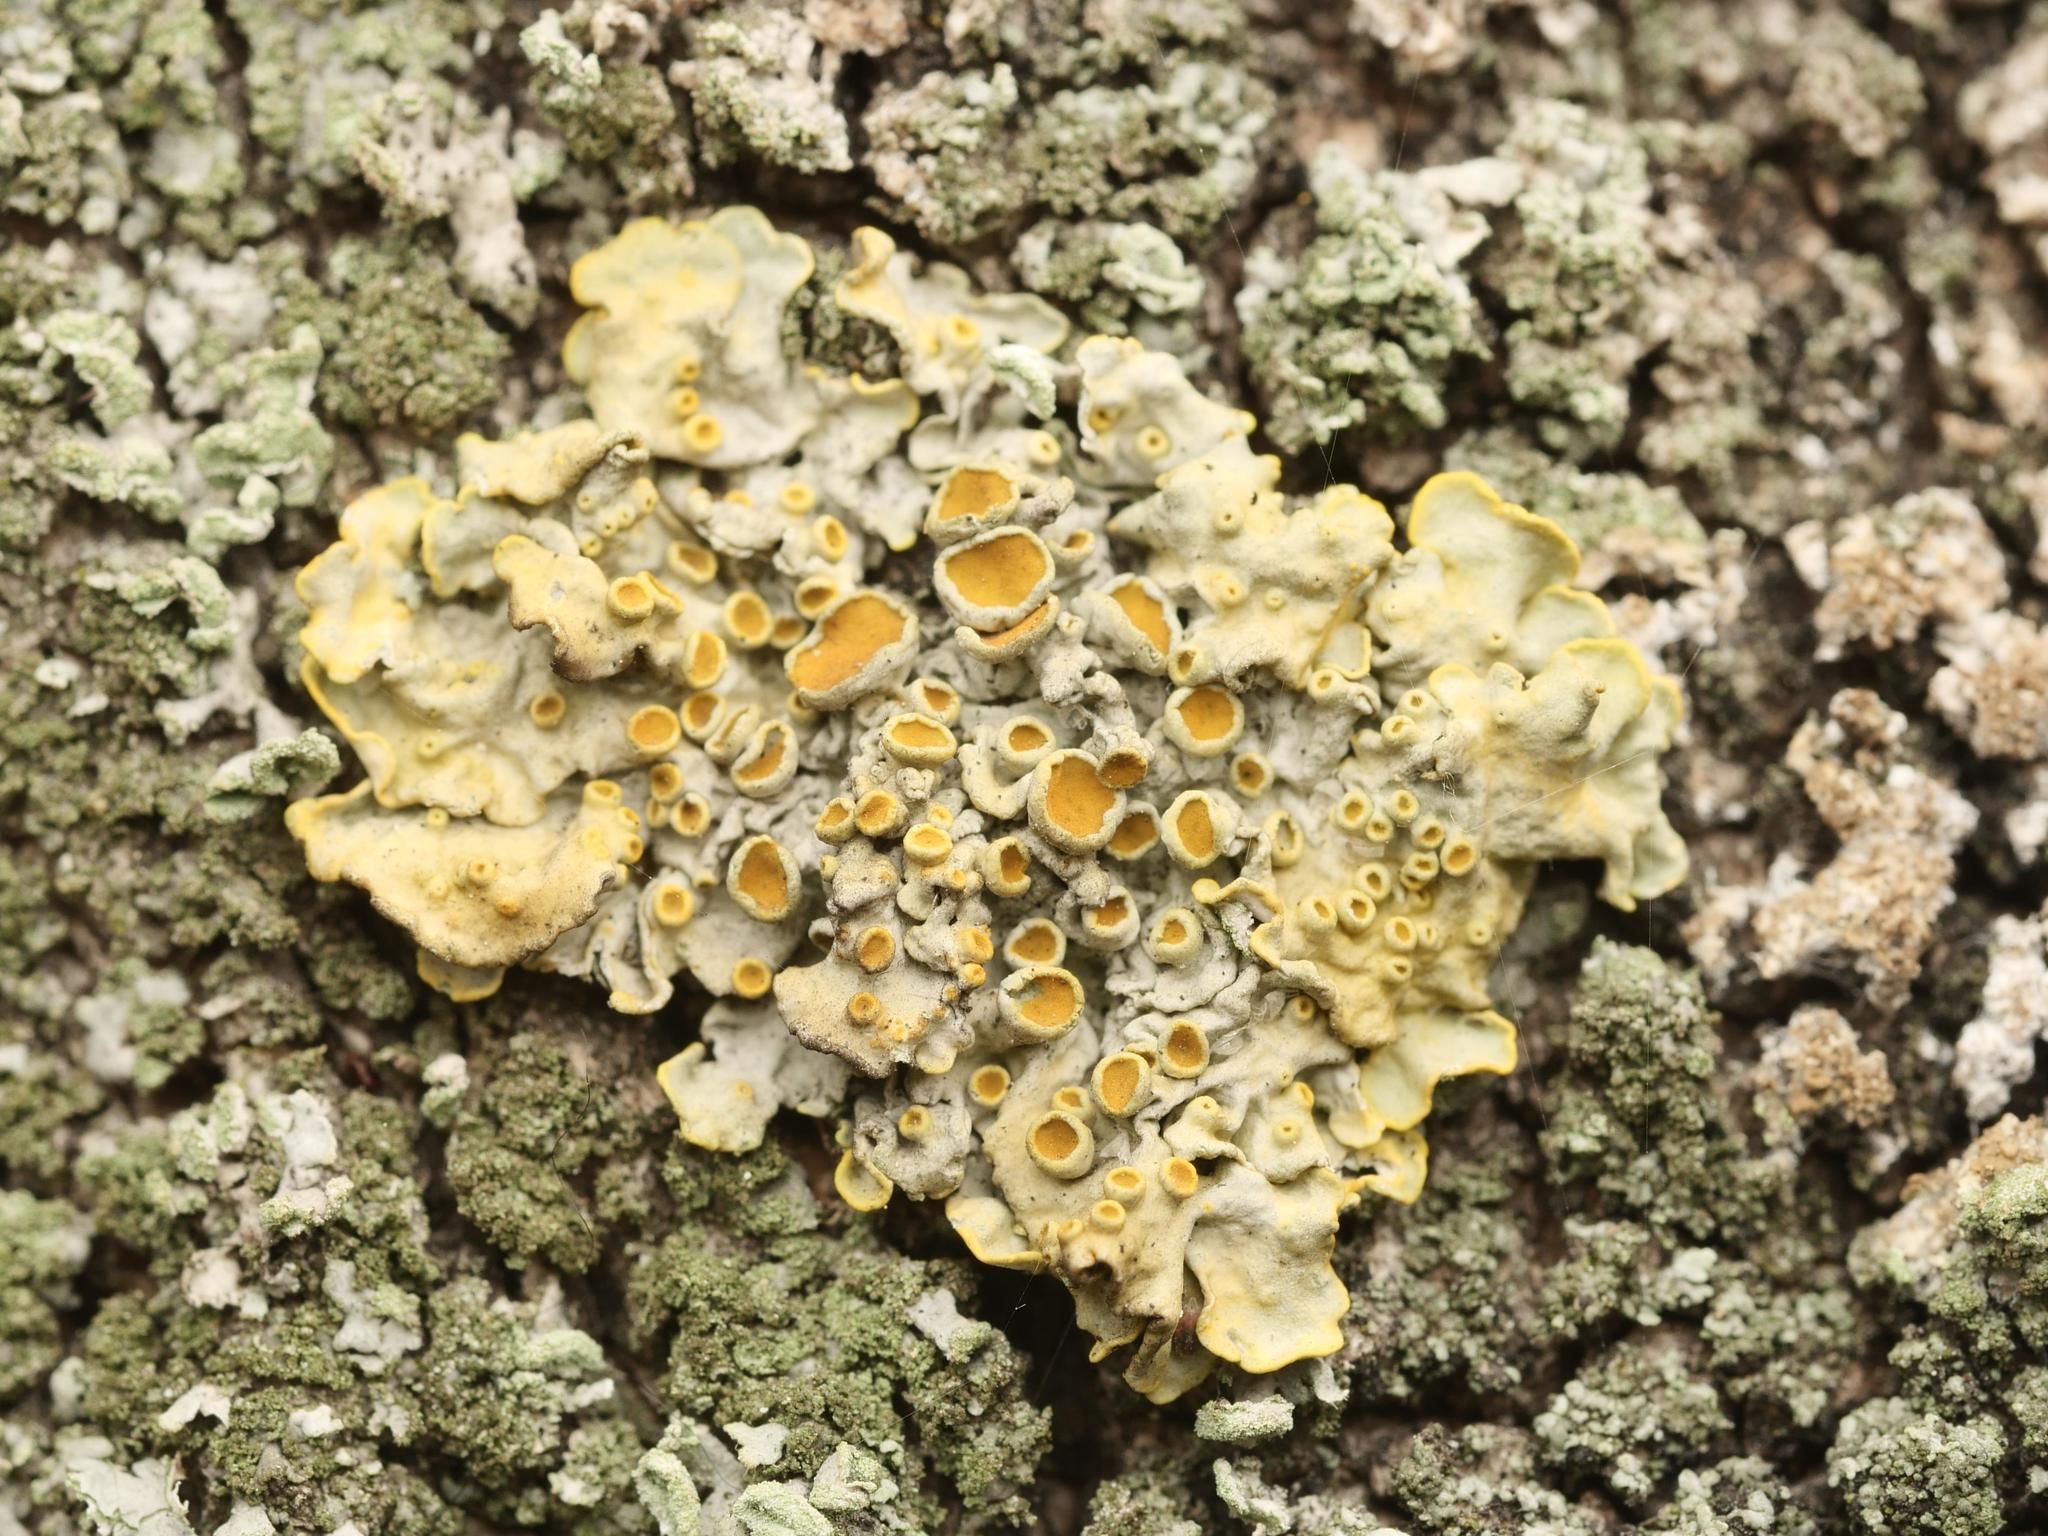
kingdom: Fungi
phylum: Ascomycota
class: Lecanoromycetes
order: Teloschistales
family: Teloschistaceae
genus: Xanthoria
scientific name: Xanthoria parietina
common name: Common orange lichen
